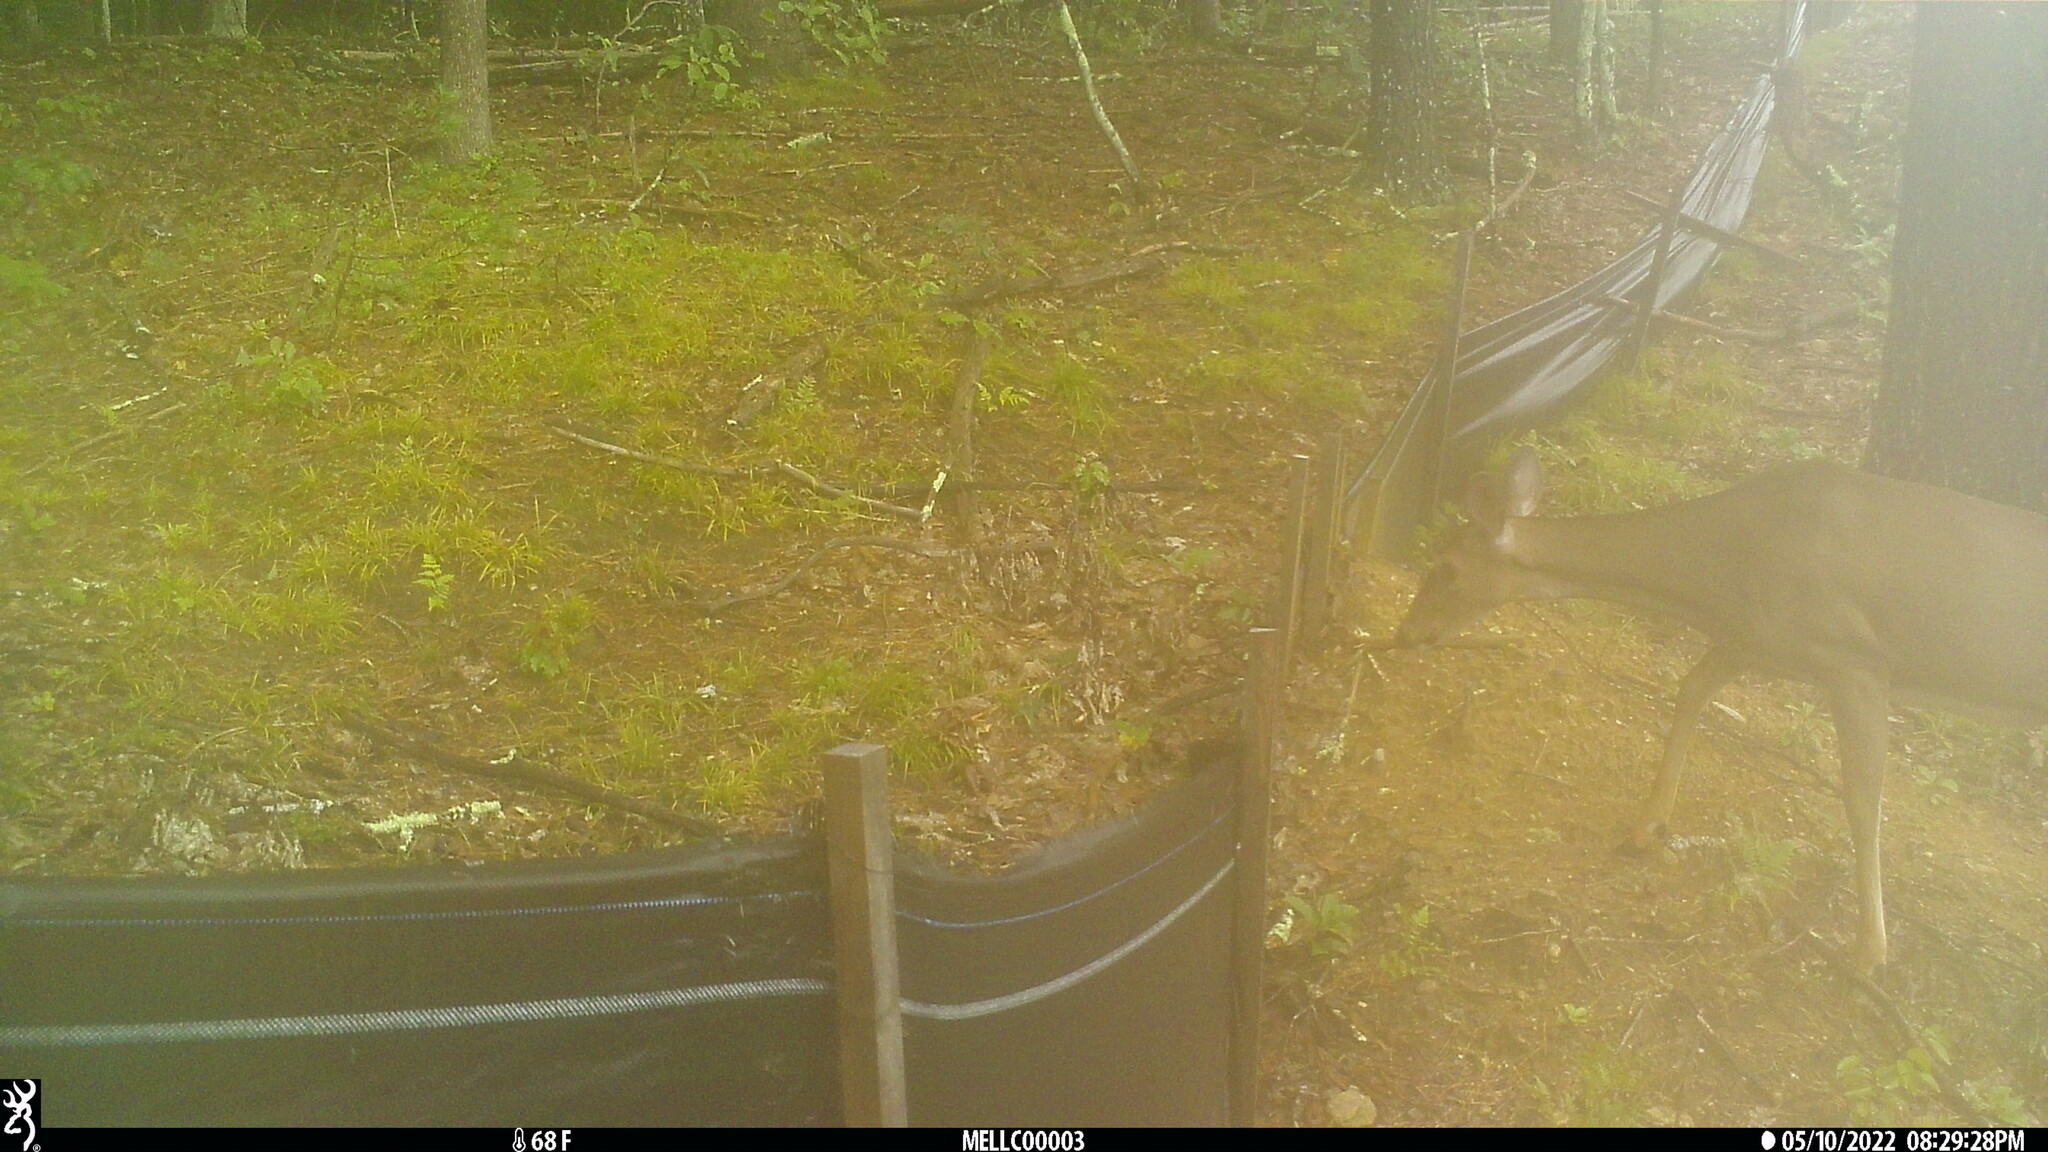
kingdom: Animalia
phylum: Chordata
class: Mammalia
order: Artiodactyla
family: Cervidae
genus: Odocoileus
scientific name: Odocoileus virginianus
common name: White-tailed deer
